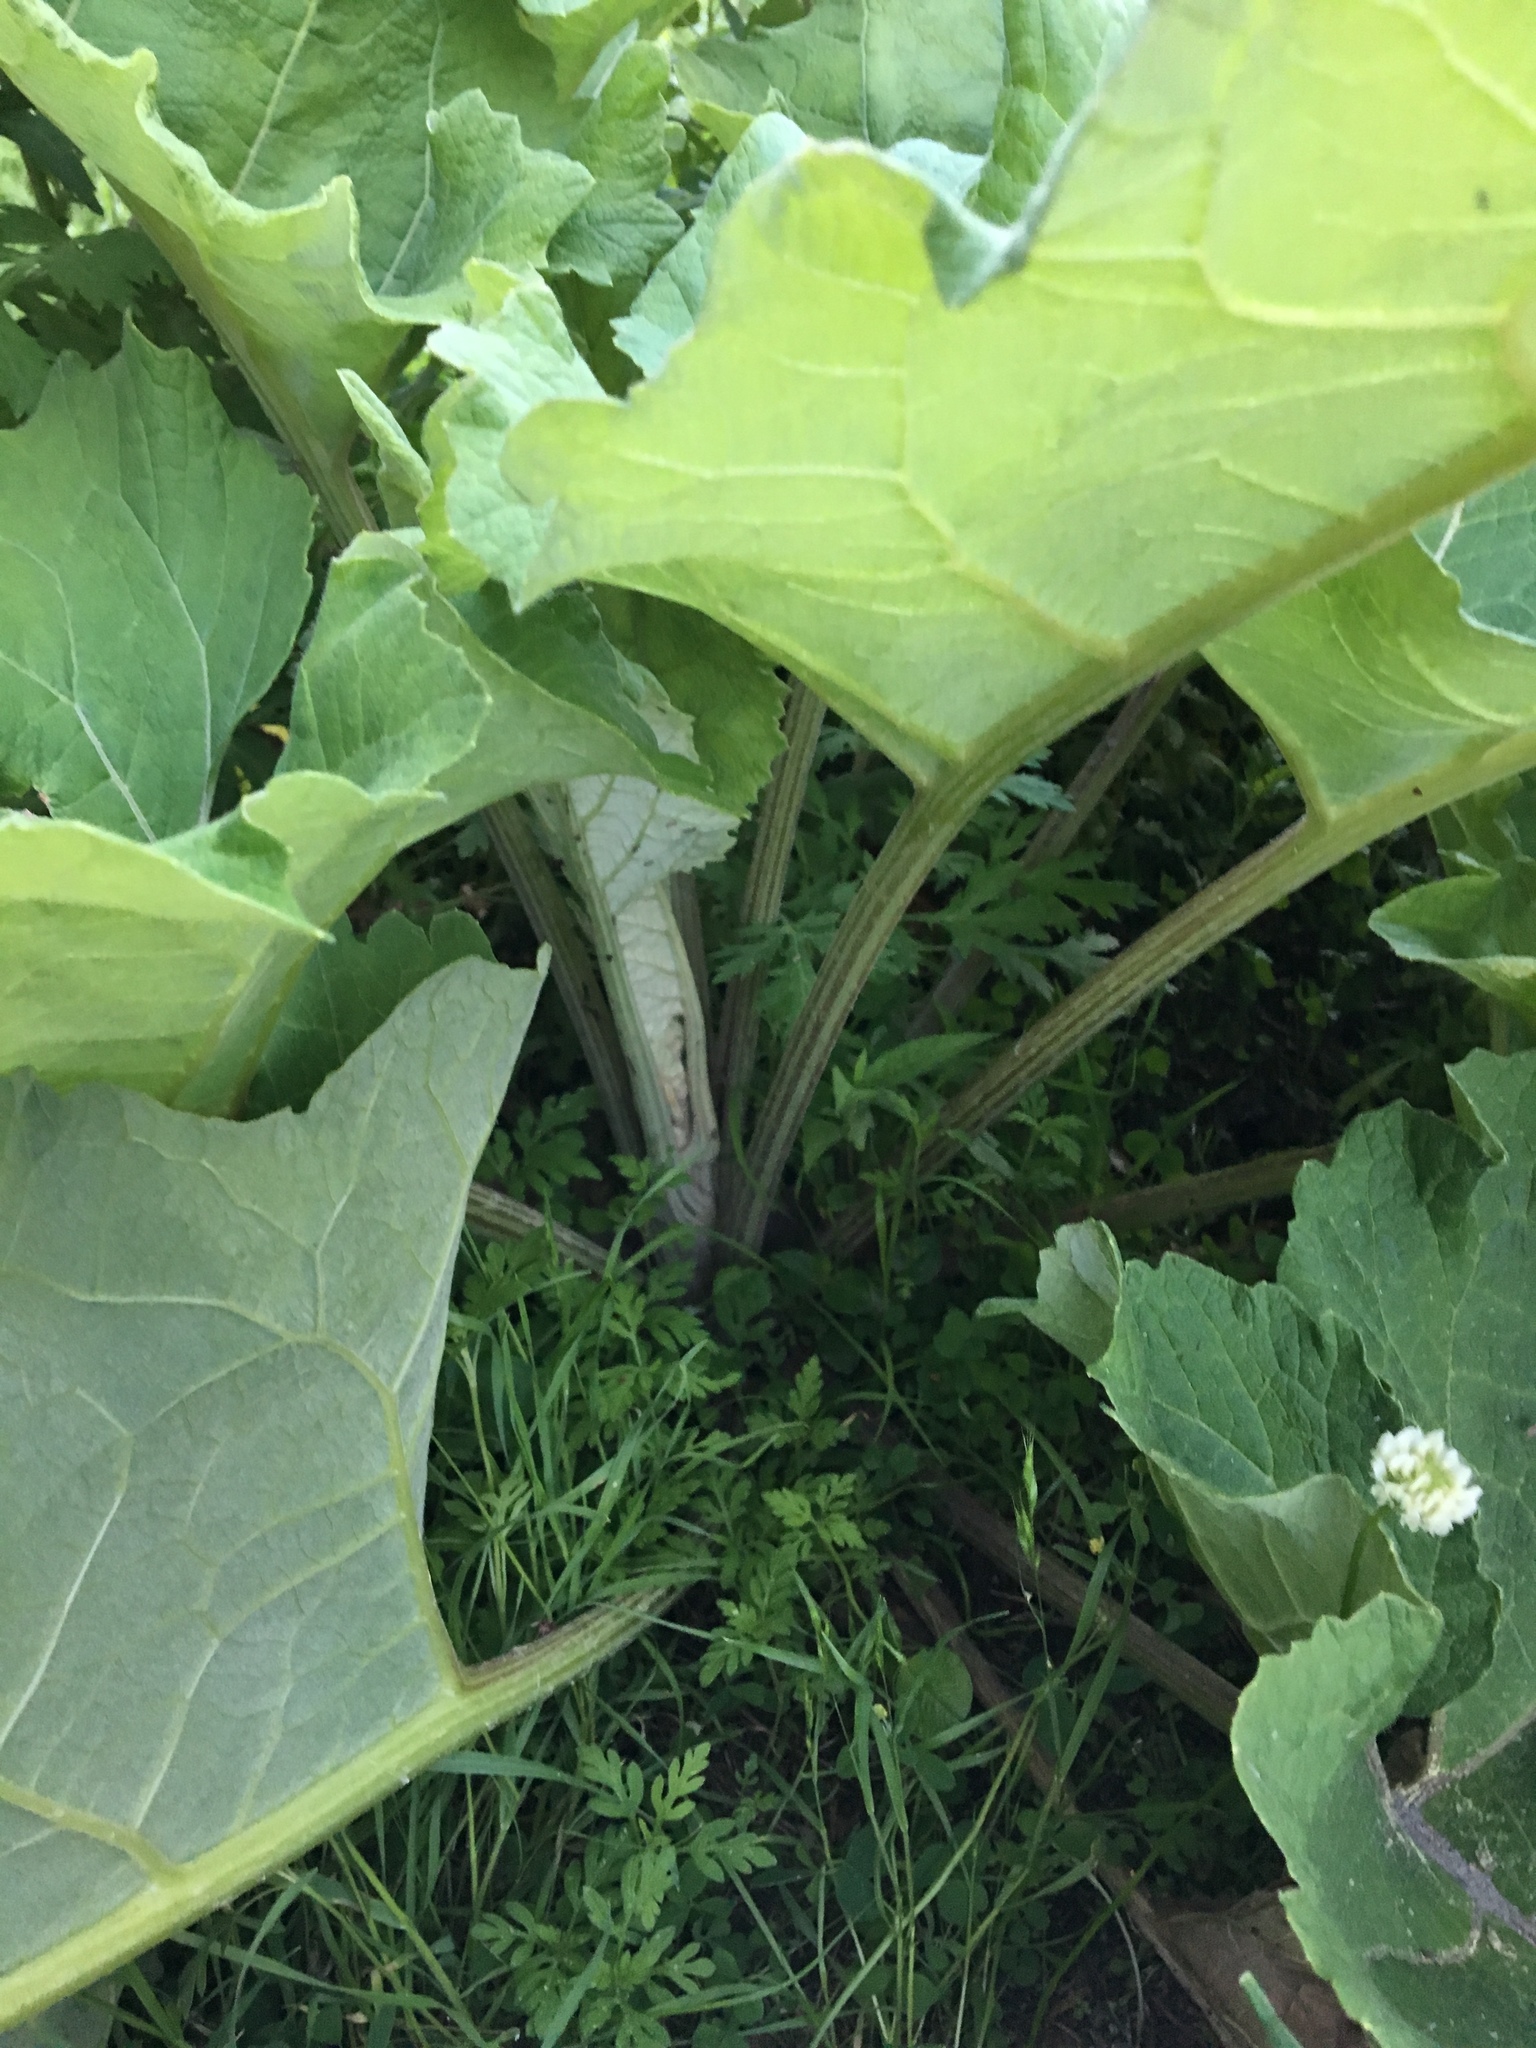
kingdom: Plantae
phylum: Tracheophyta
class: Magnoliopsida
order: Asterales
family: Asteraceae
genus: Arctium
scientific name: Arctium
